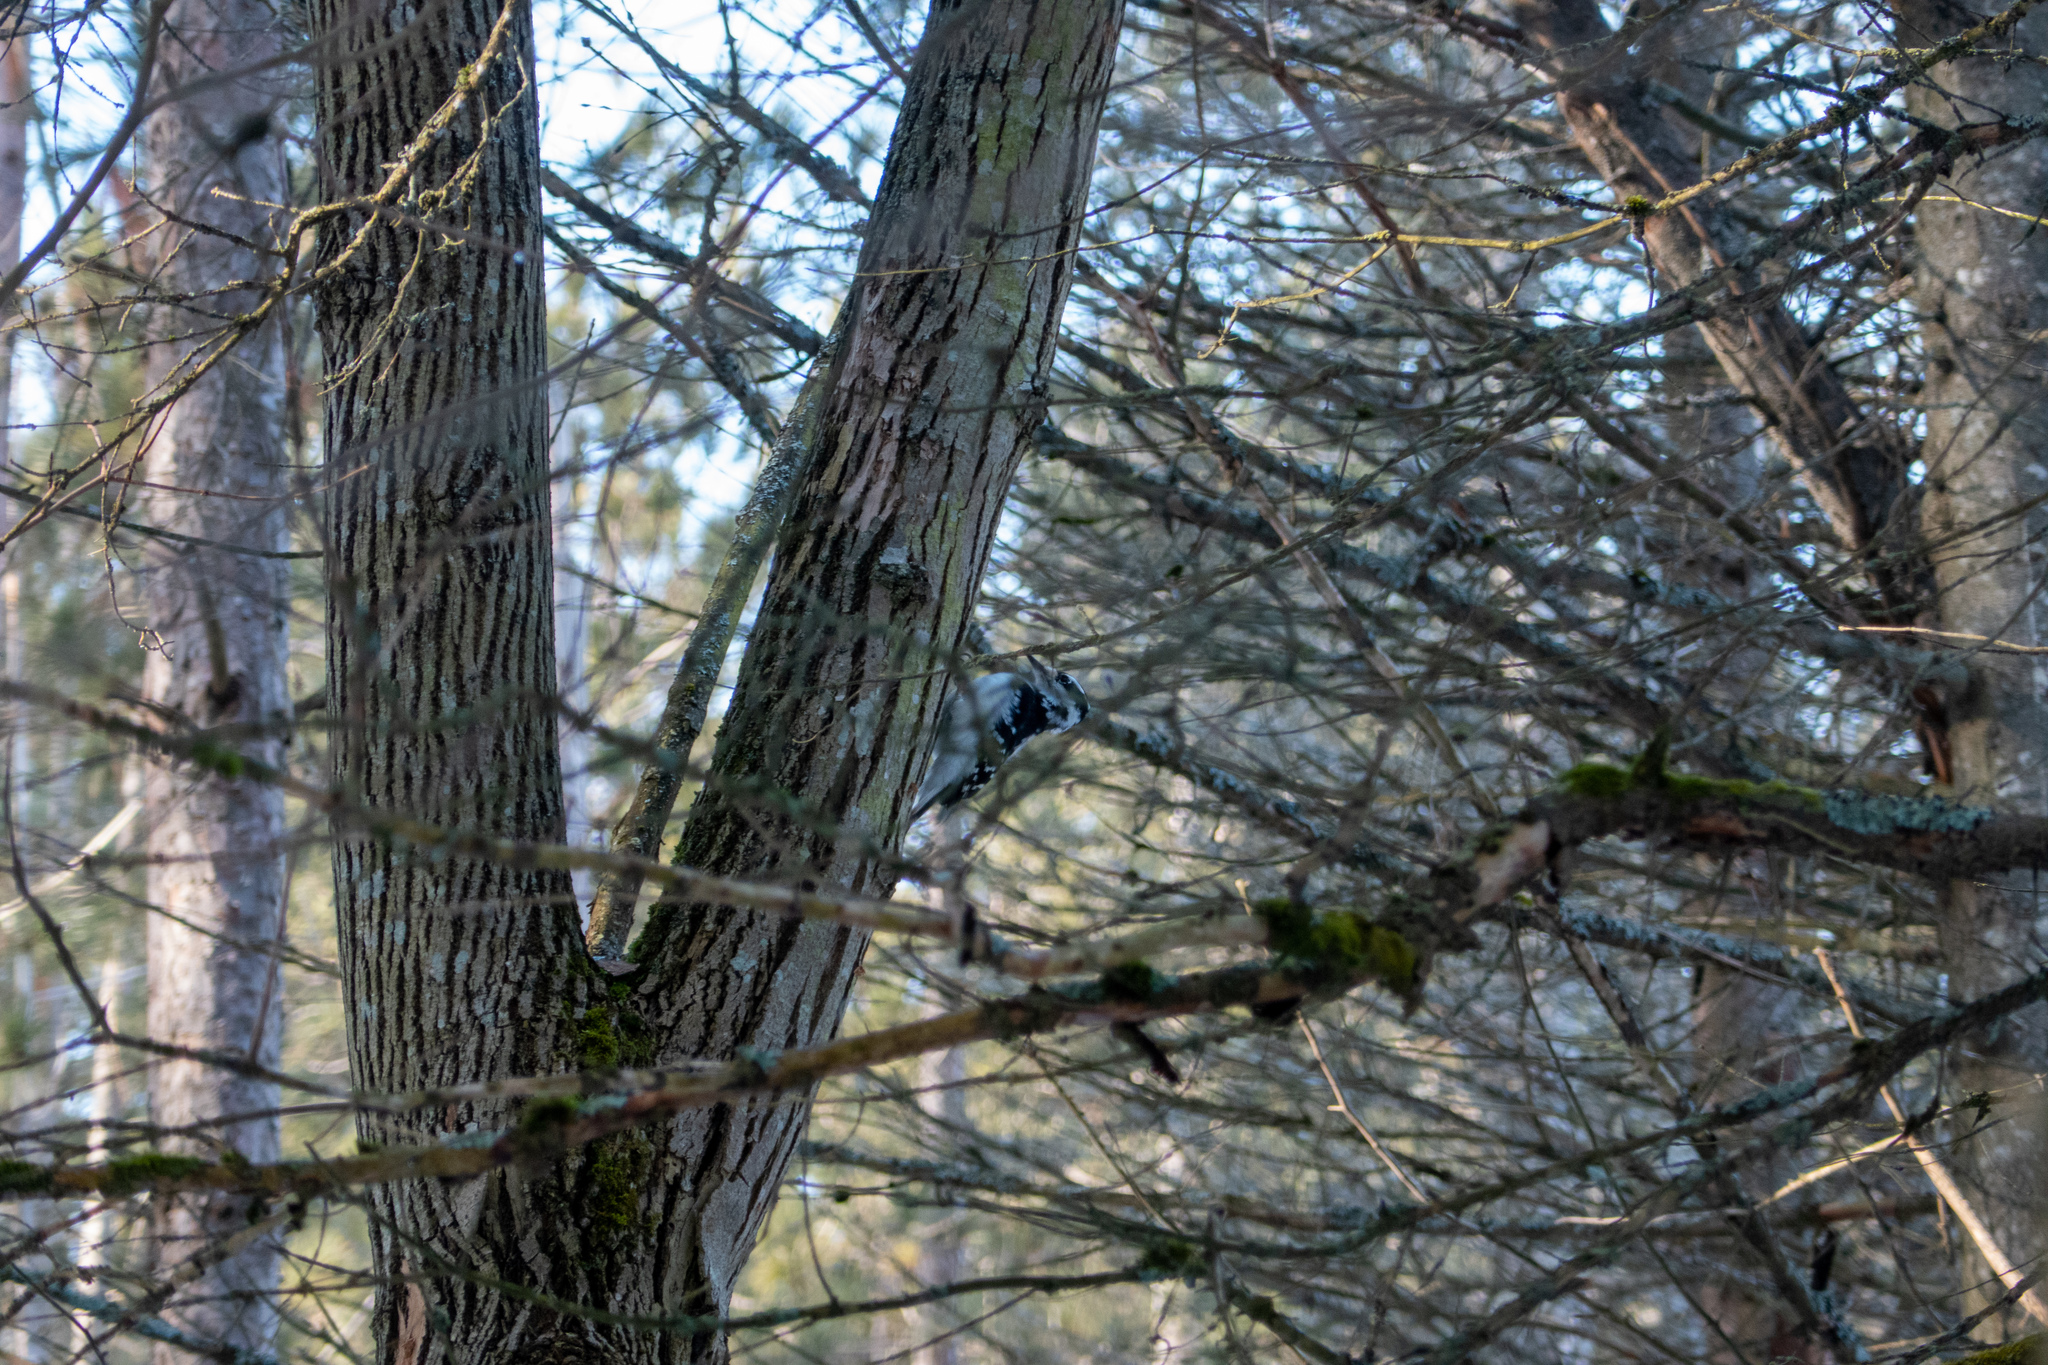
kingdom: Animalia
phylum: Chordata
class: Aves
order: Piciformes
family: Picidae
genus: Leuconotopicus
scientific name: Leuconotopicus villosus
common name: Hairy woodpecker
